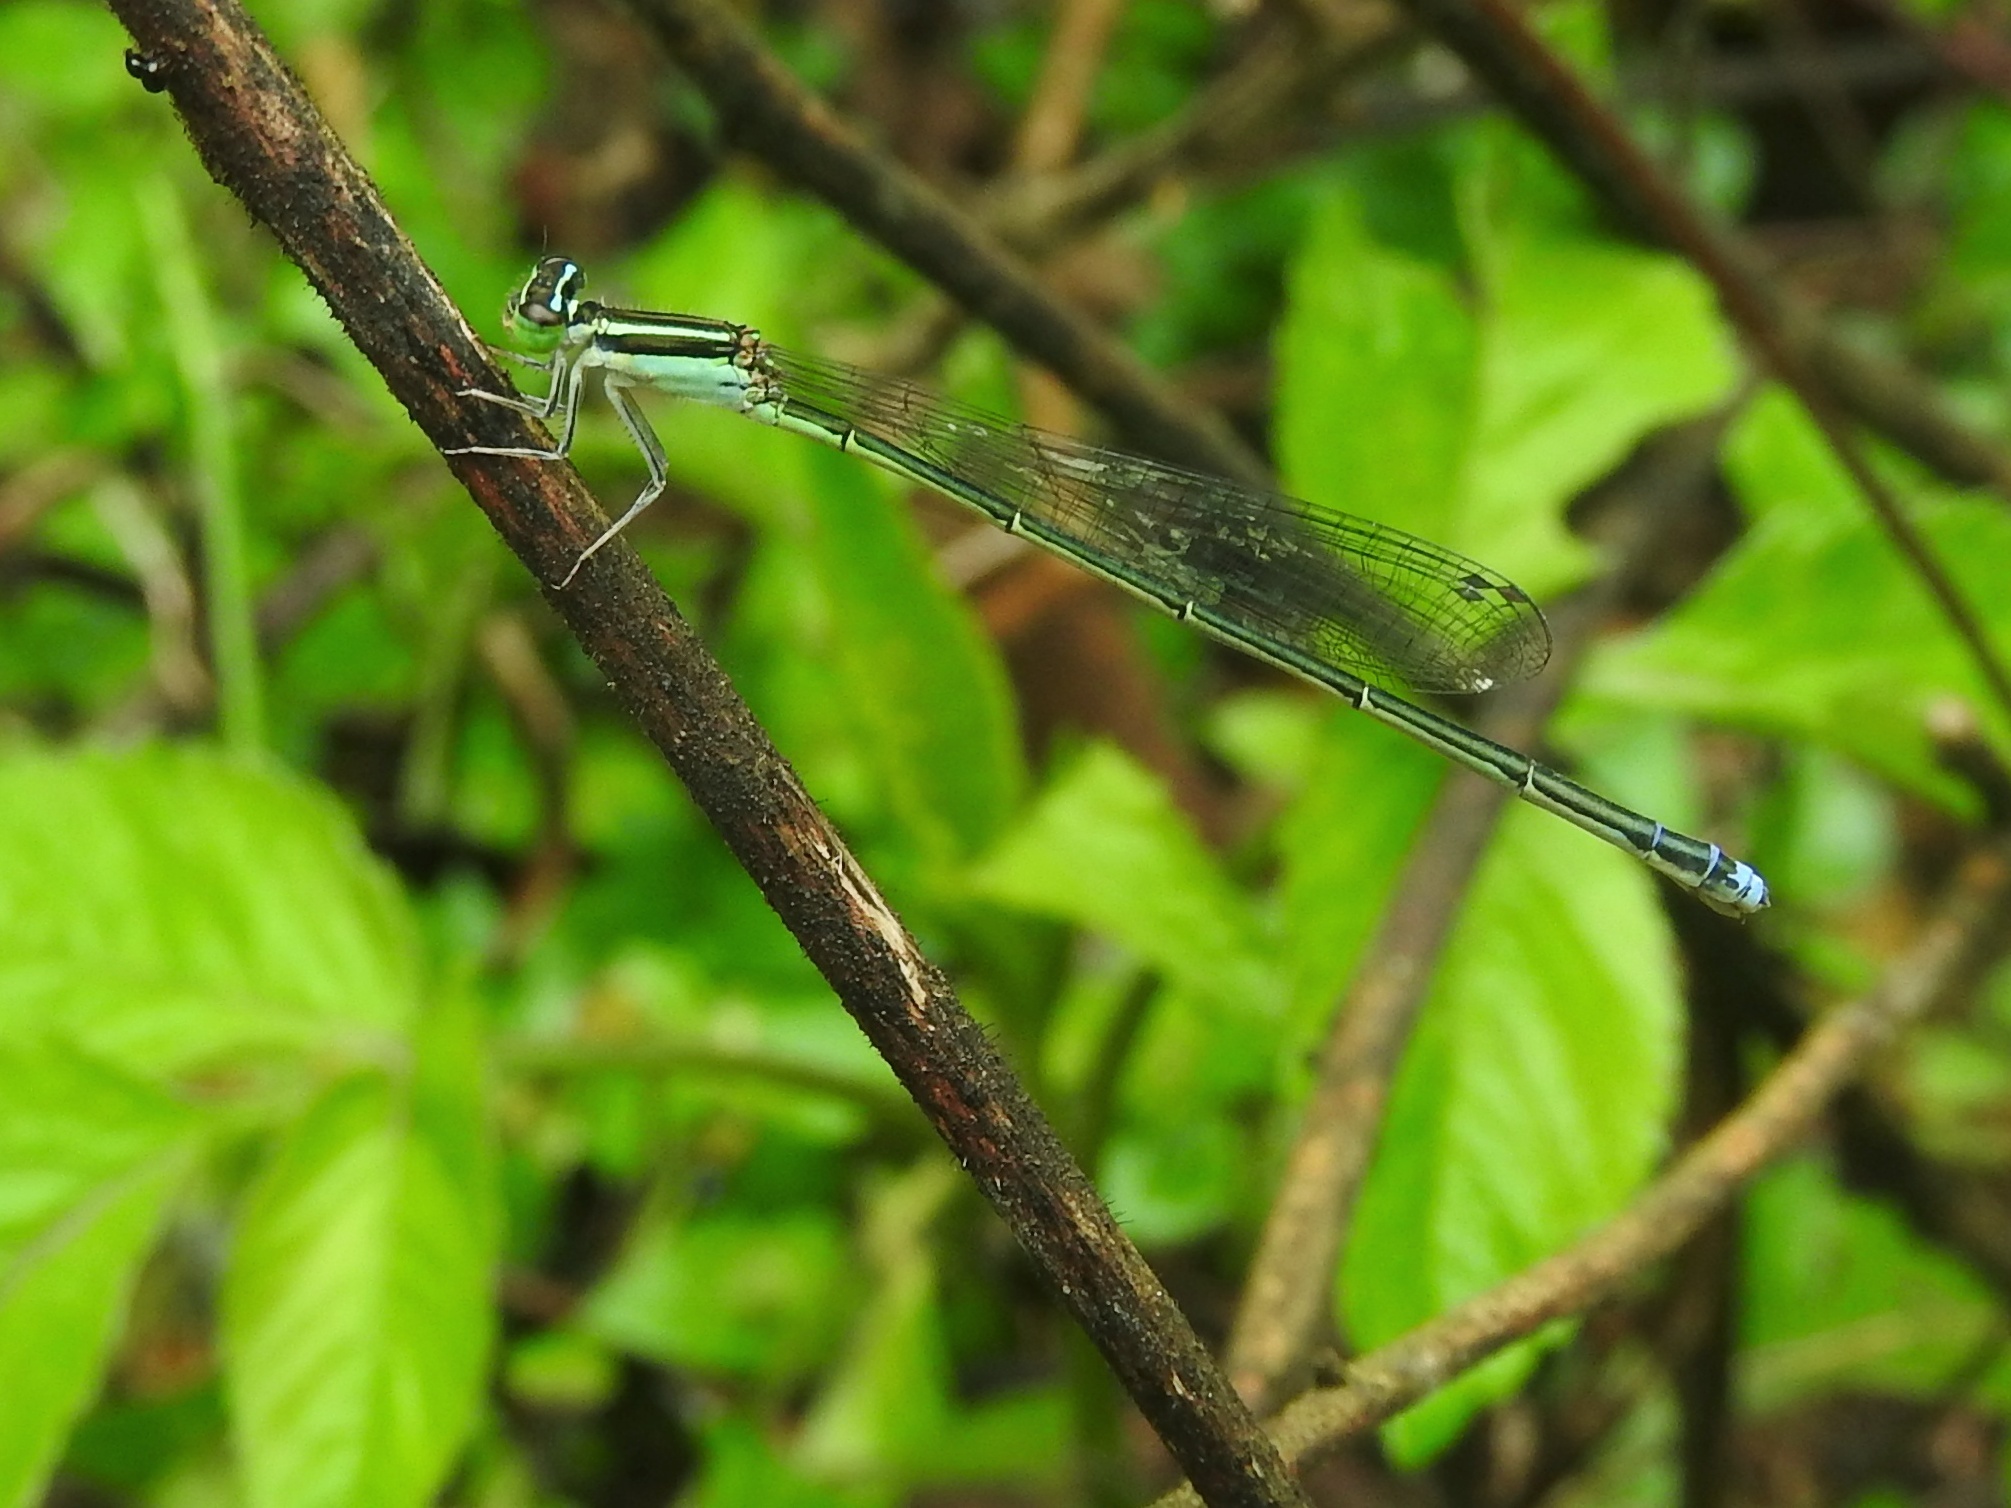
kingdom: Animalia
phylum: Arthropoda
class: Insecta
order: Odonata
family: Coenagrionidae
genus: Aciagrion
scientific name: Aciagrion approximans
